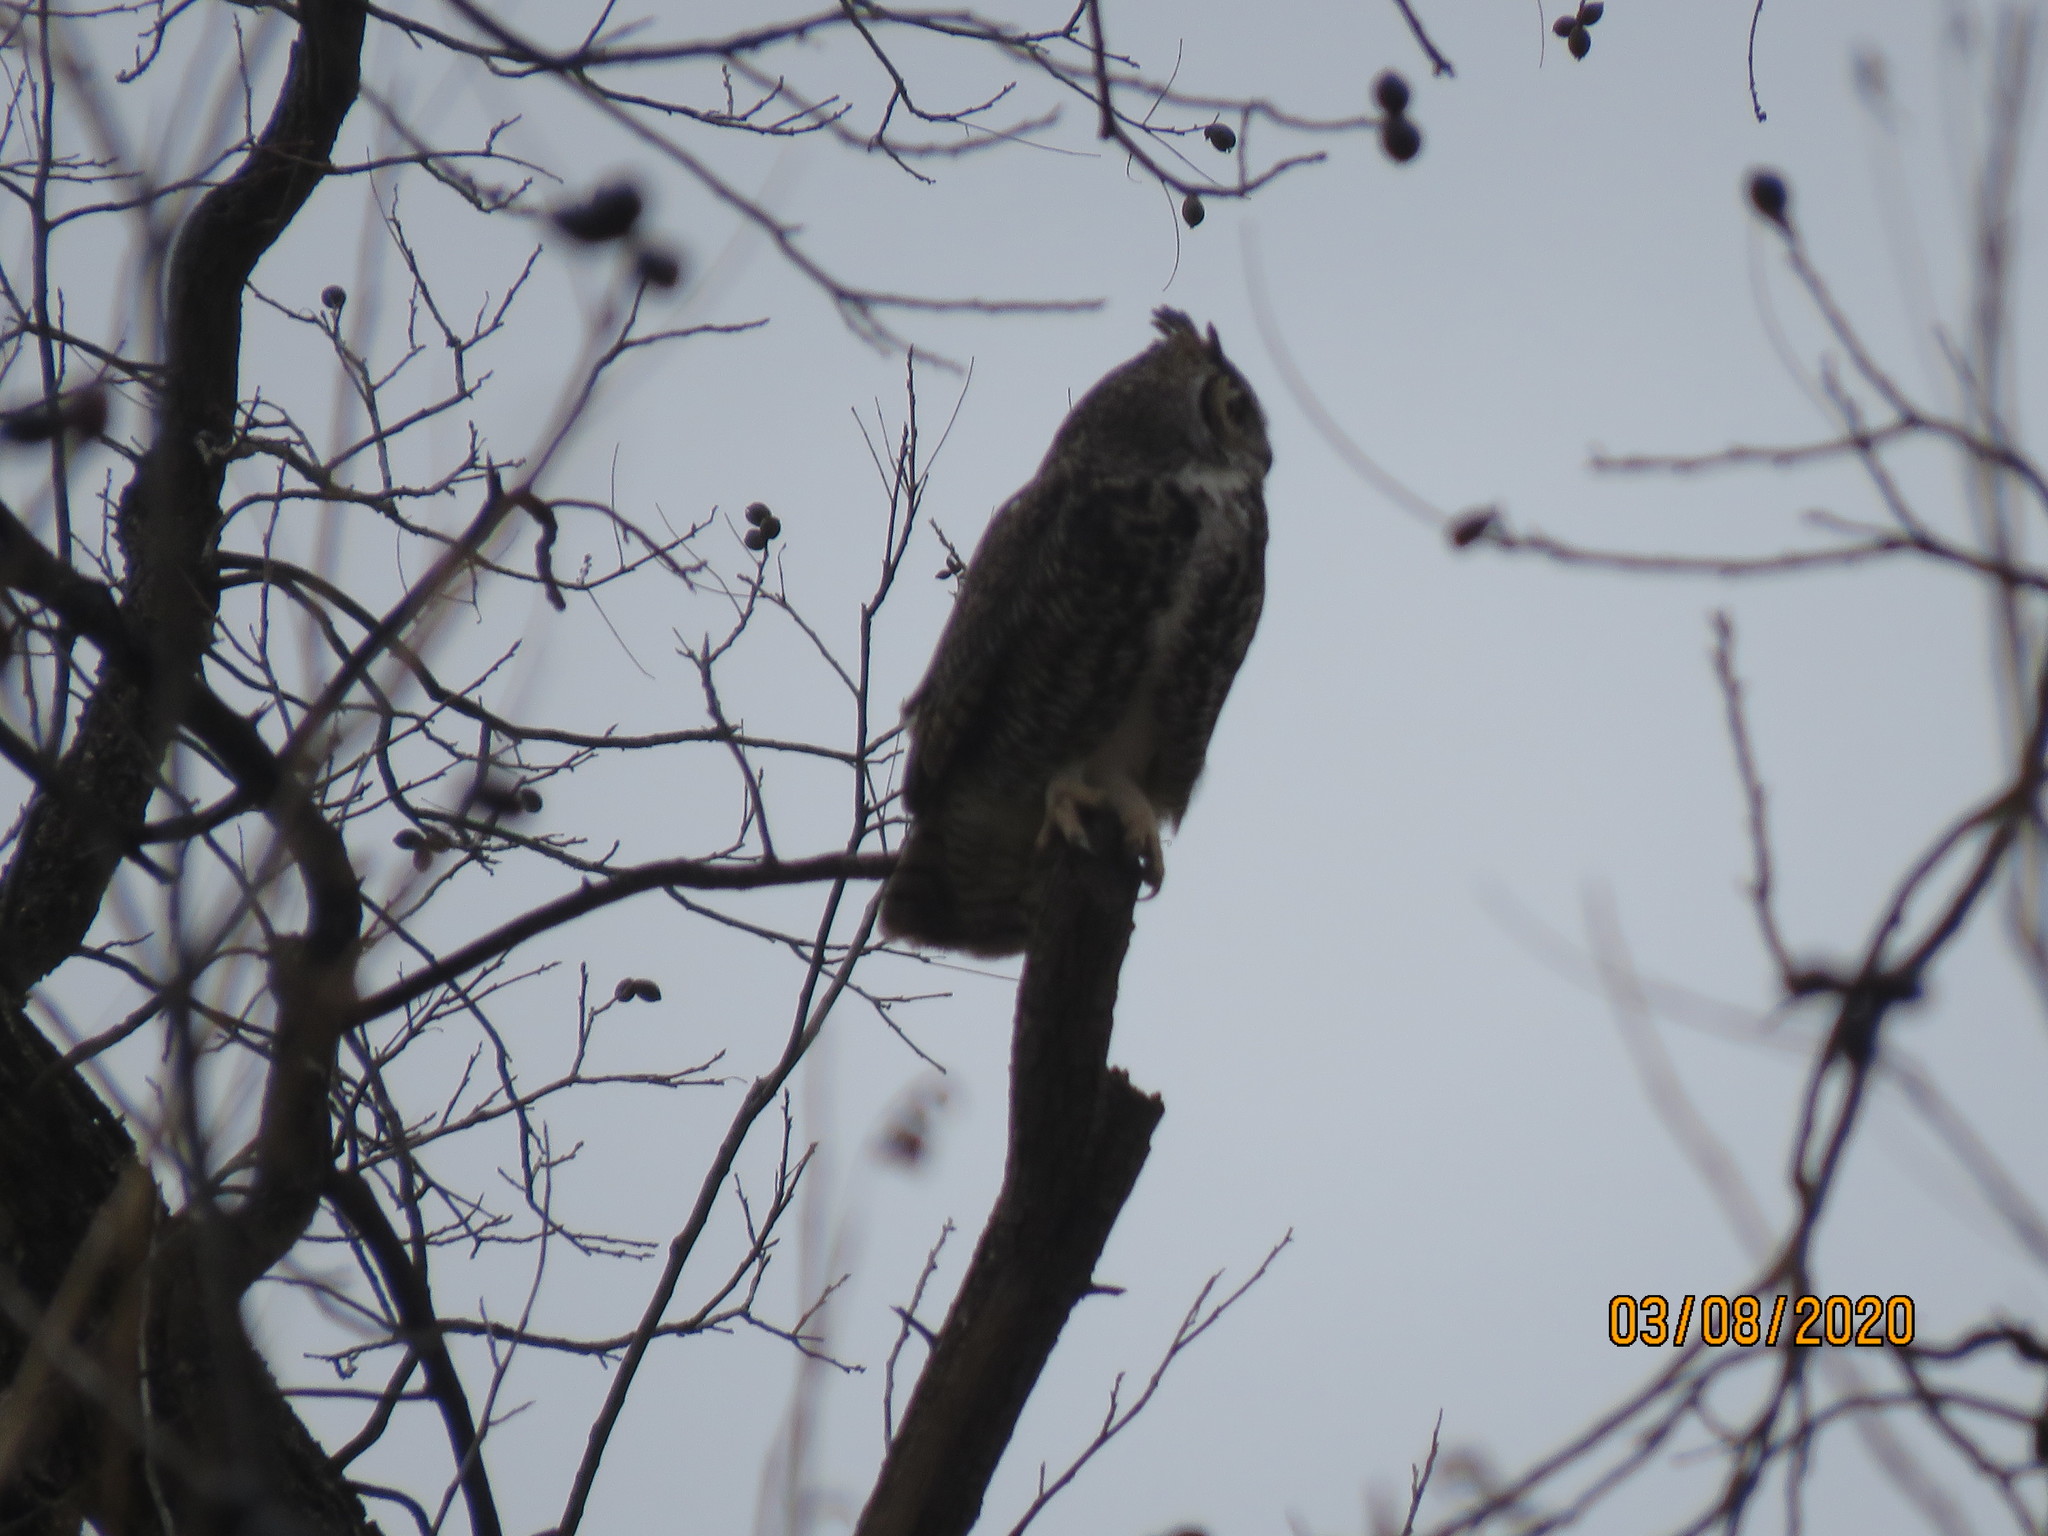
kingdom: Animalia
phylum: Chordata
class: Aves
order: Strigiformes
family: Strigidae
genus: Bubo
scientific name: Bubo virginianus
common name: Great horned owl
